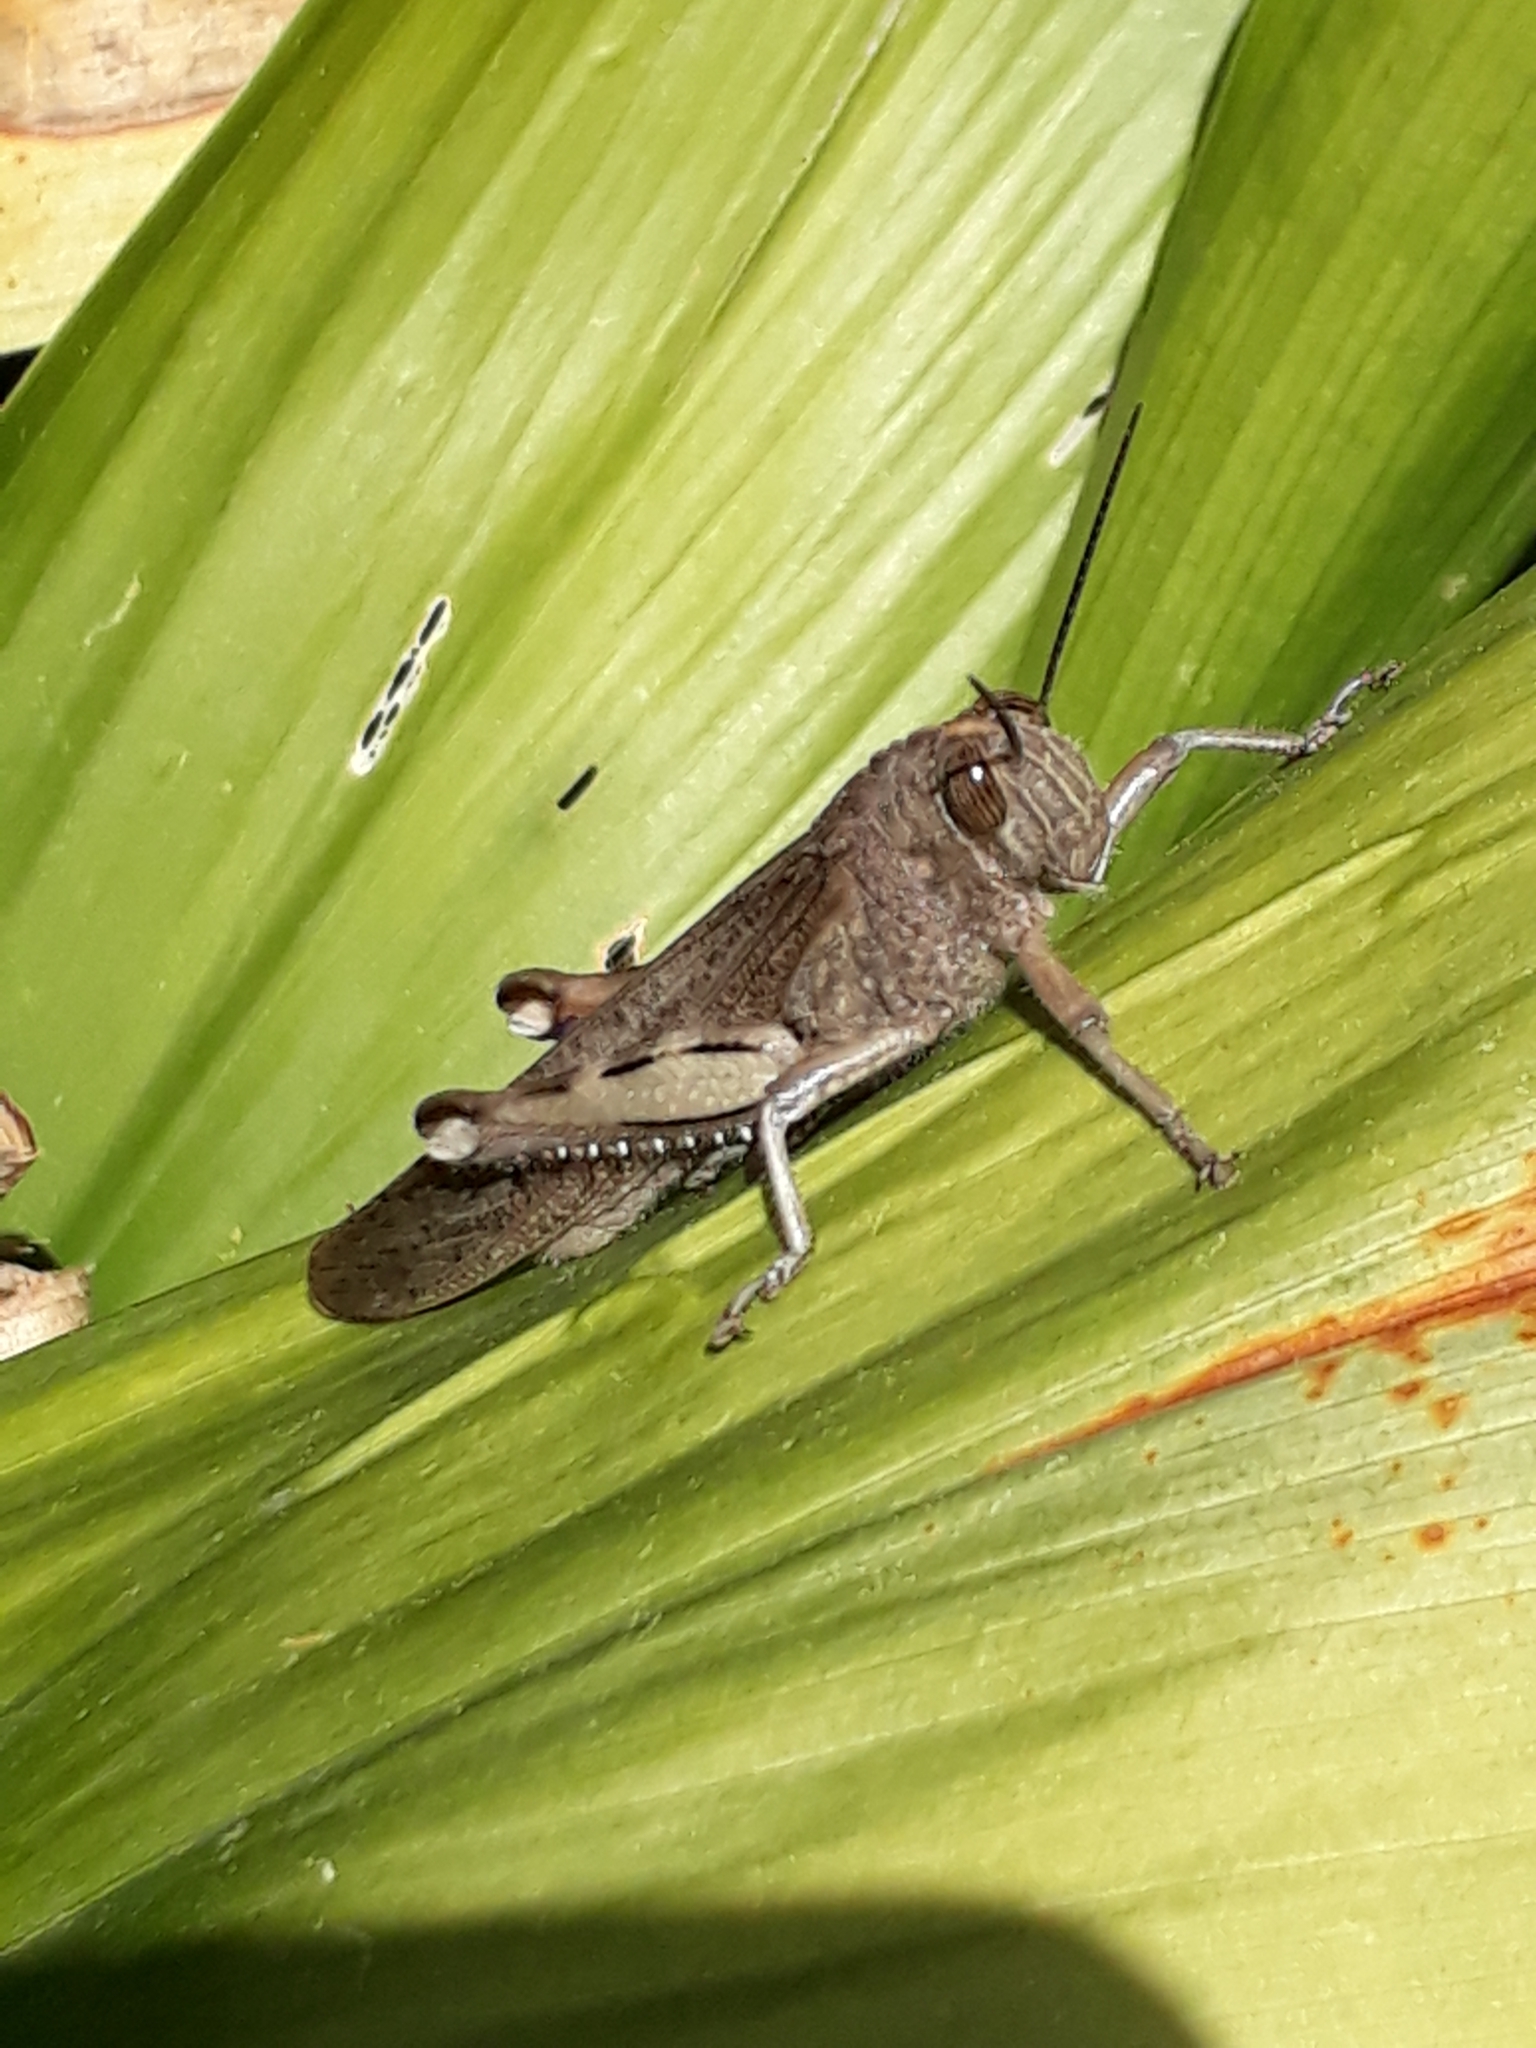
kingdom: Animalia
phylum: Arthropoda
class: Insecta
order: Orthoptera
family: Acrididae
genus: Anacridium
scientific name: Anacridium aegyptium
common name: Egyptian grasshopper
